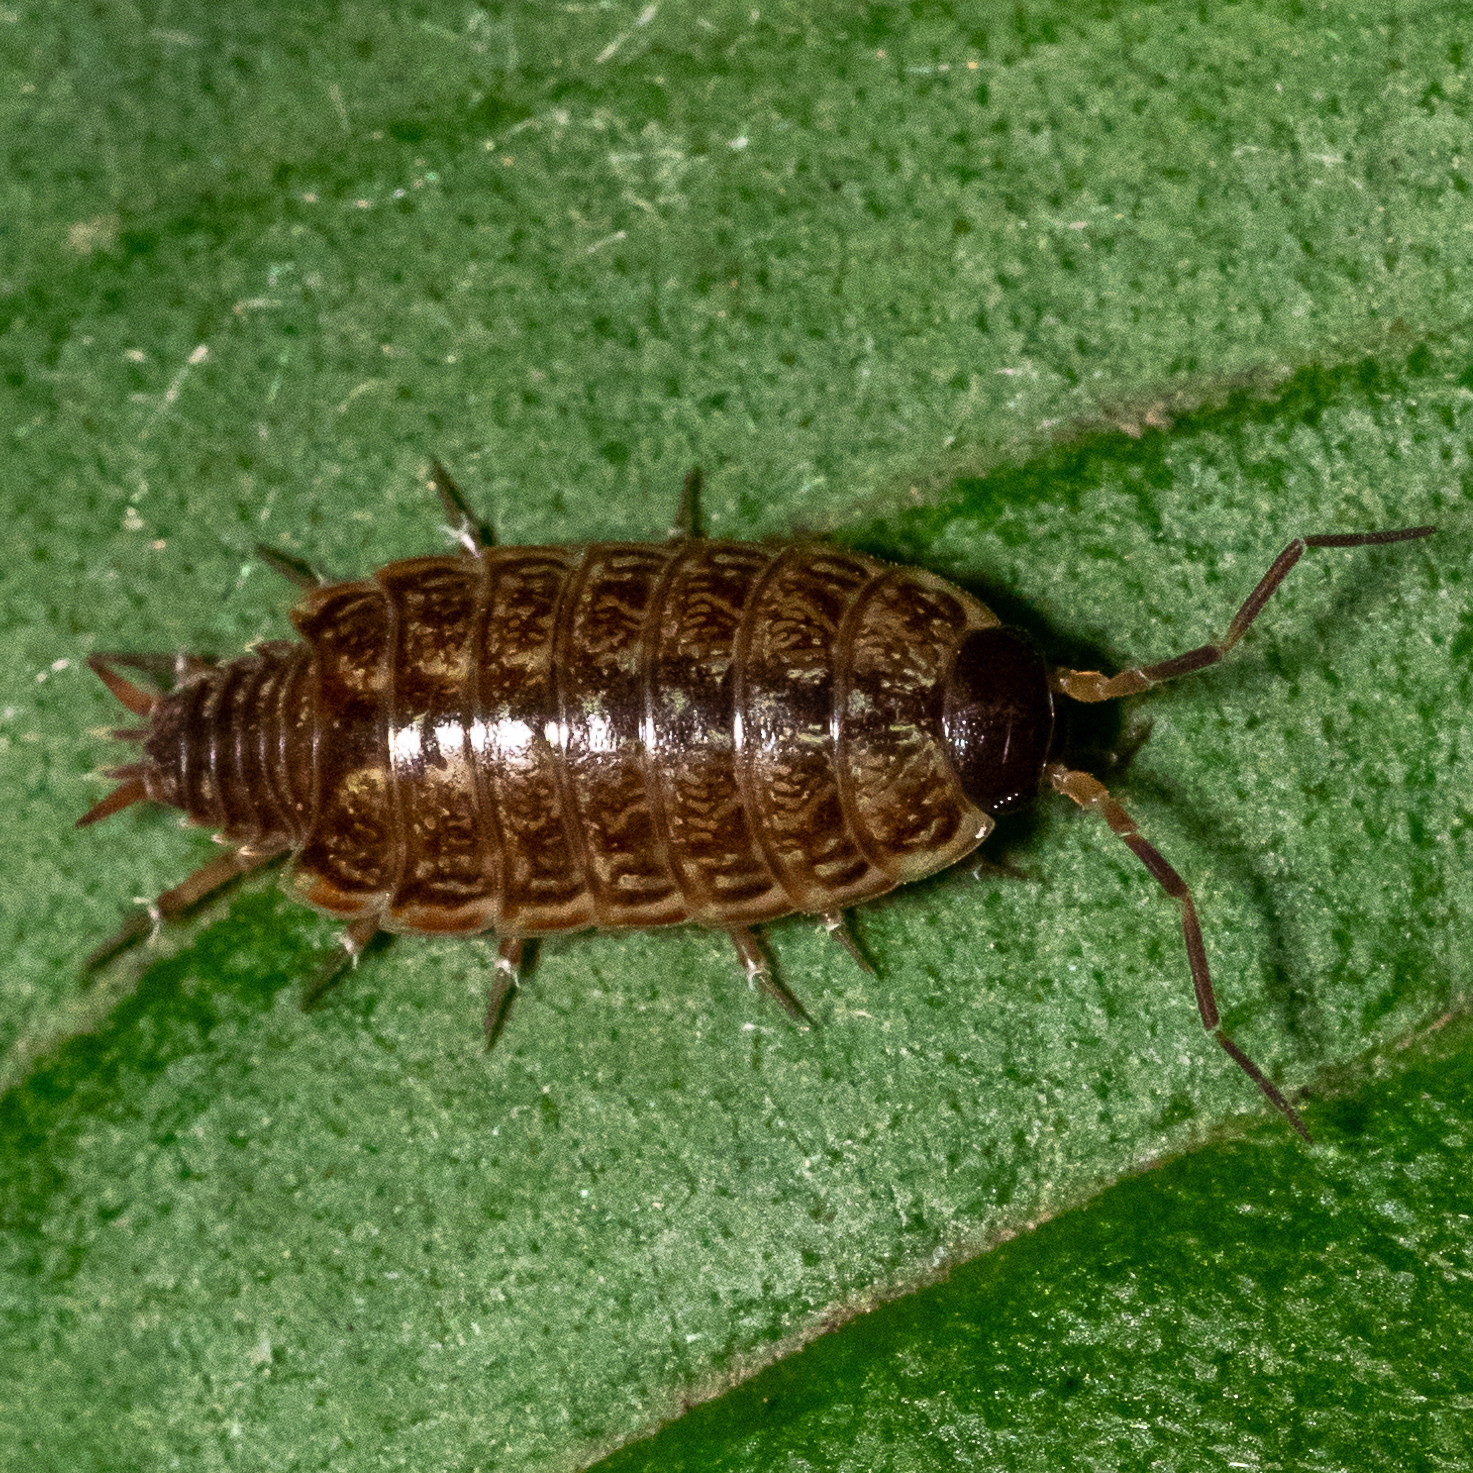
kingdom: Animalia
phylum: Arthropoda
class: Malacostraca
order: Isopoda
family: Philosciidae
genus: Philoscia
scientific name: Philoscia muscorum
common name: Common striped woodlouse
